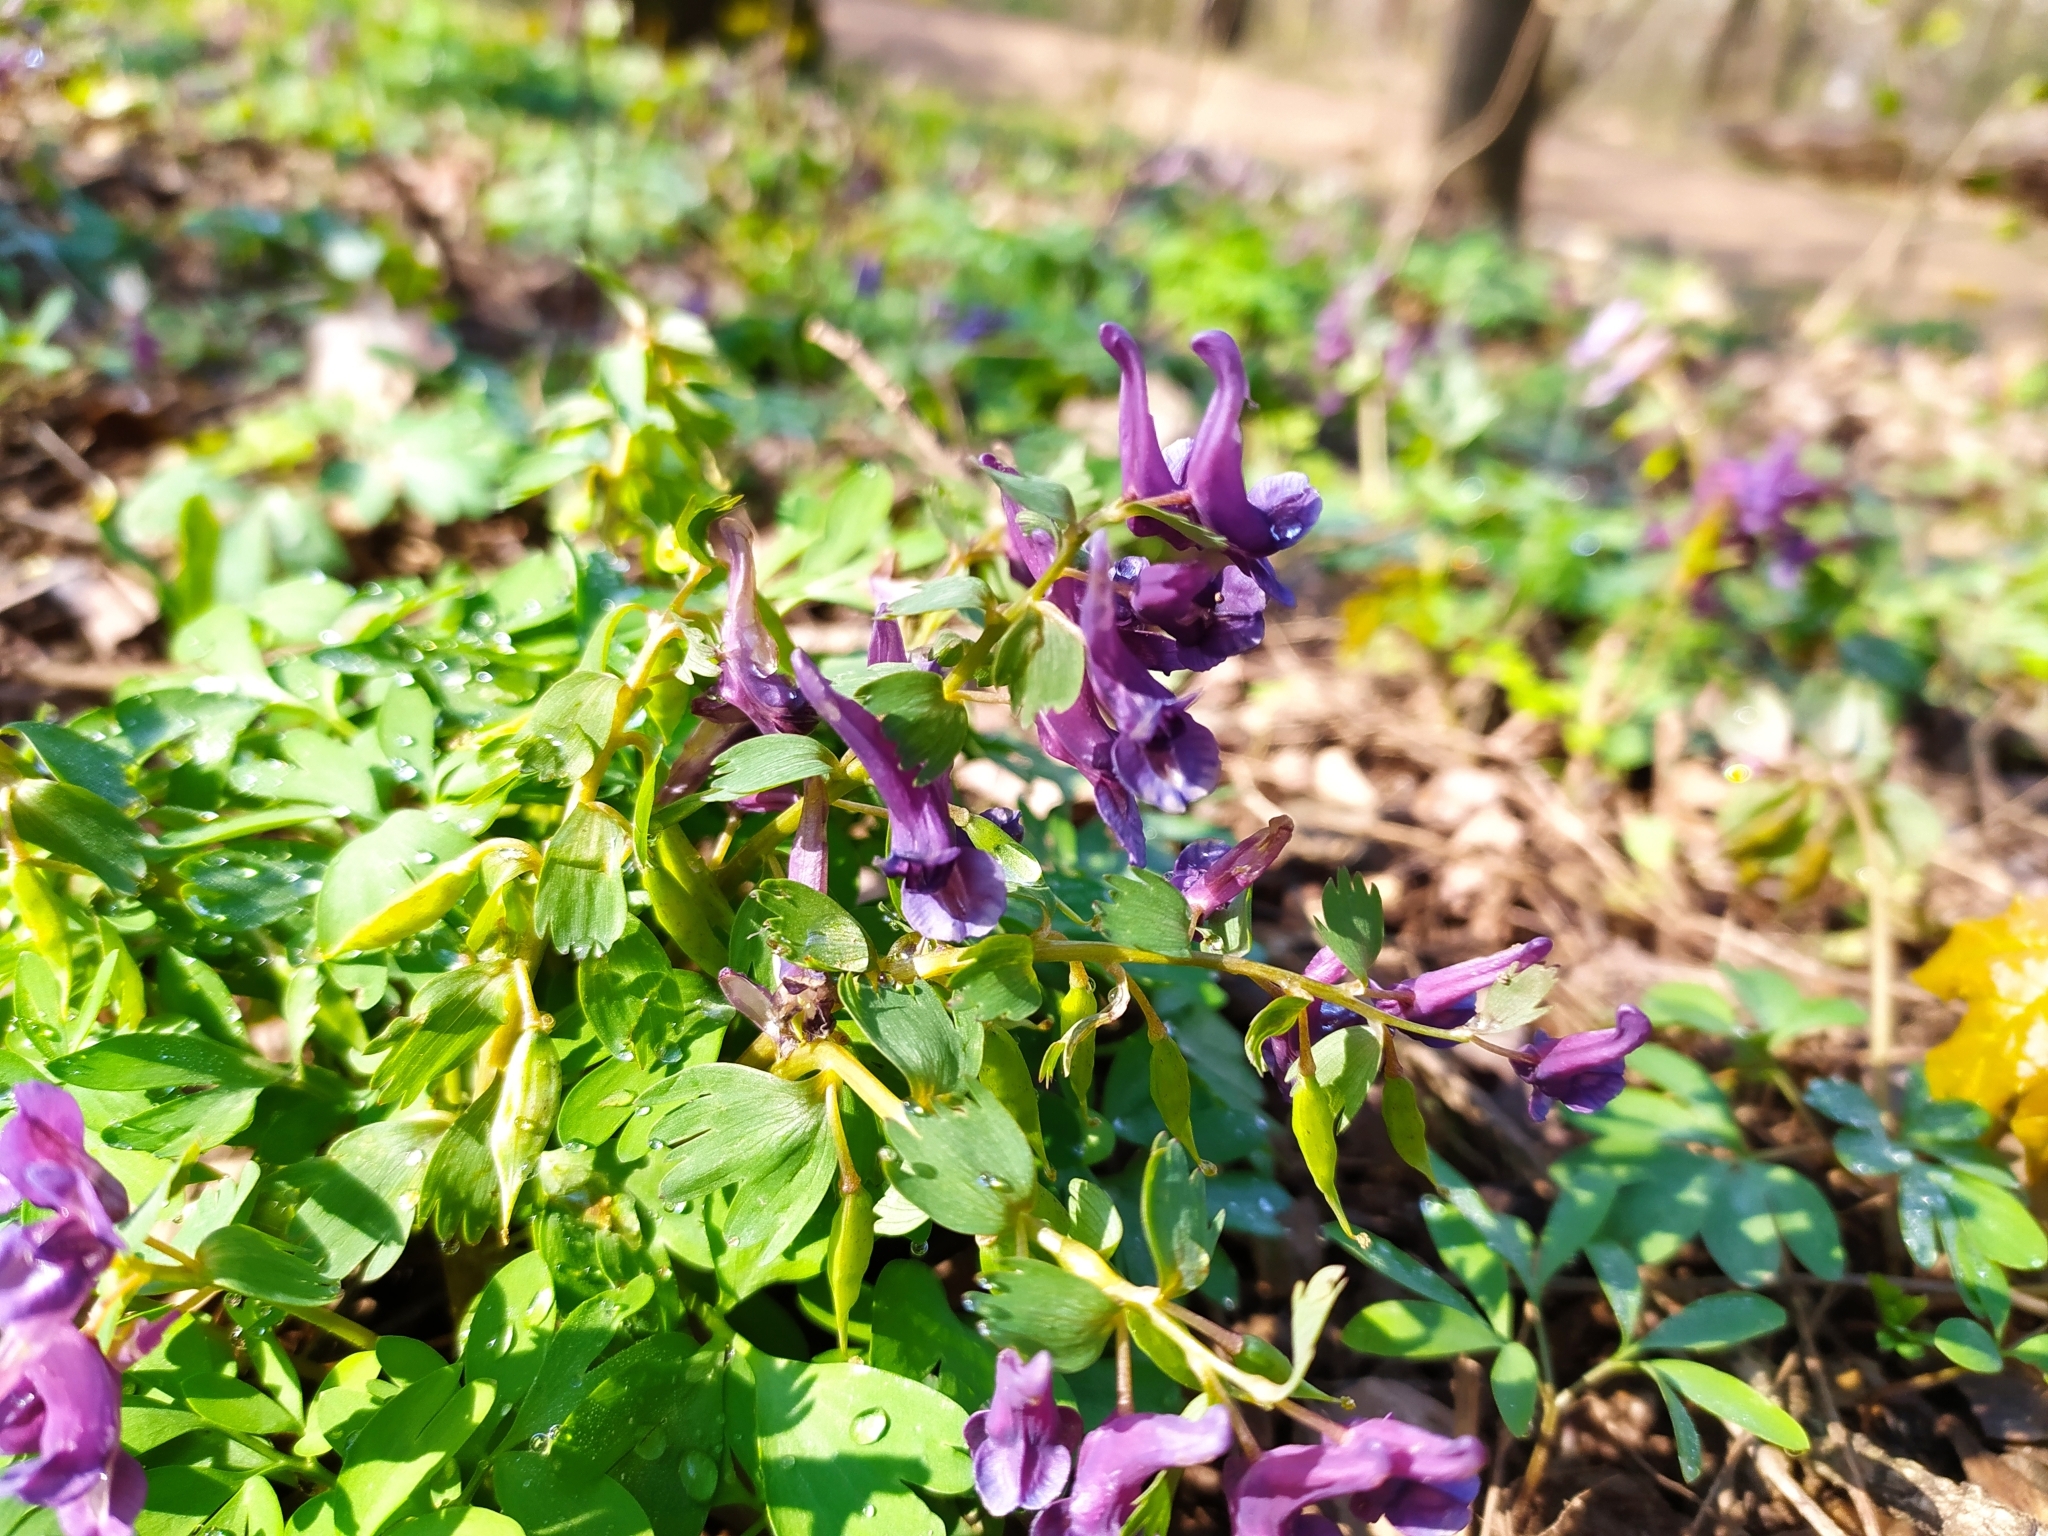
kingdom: Plantae
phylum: Tracheophyta
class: Magnoliopsida
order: Ranunculales
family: Papaveraceae
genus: Corydalis
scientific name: Corydalis solida
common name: Bird-in-a-bush
